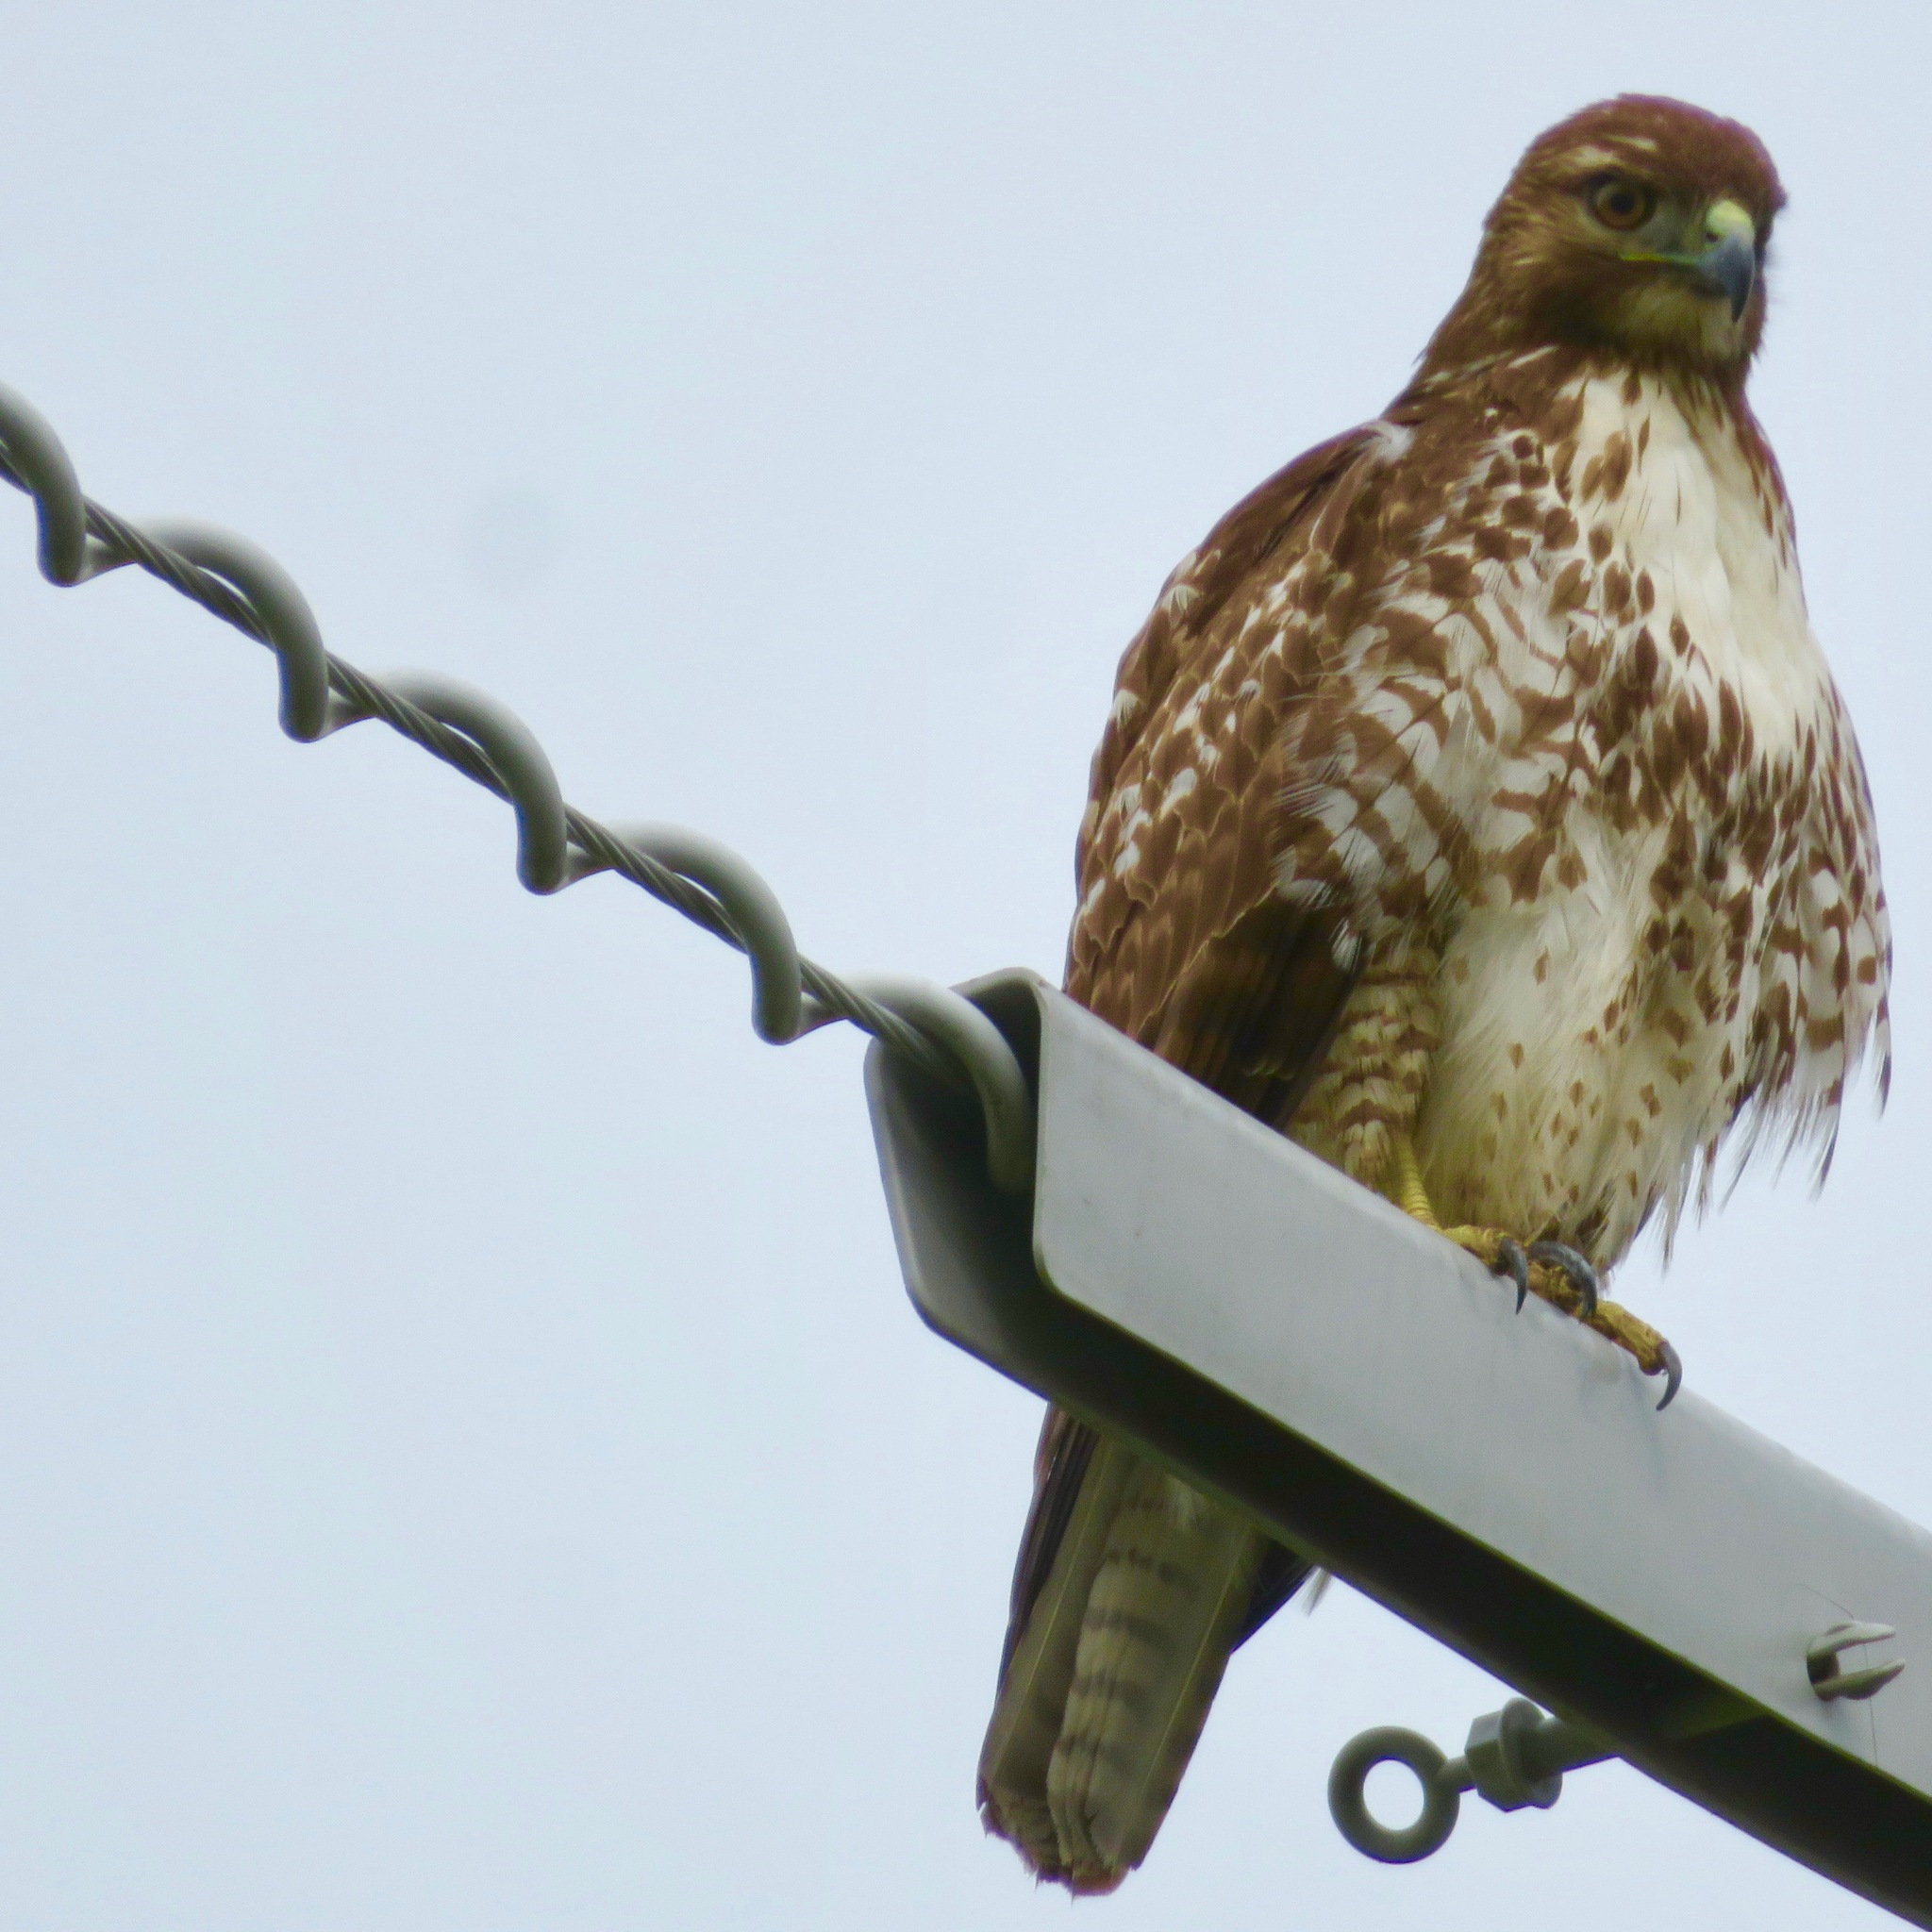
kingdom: Animalia
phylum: Chordata
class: Aves
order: Accipitriformes
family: Accipitridae
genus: Buteo
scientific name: Buteo jamaicensis
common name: Red-tailed hawk
